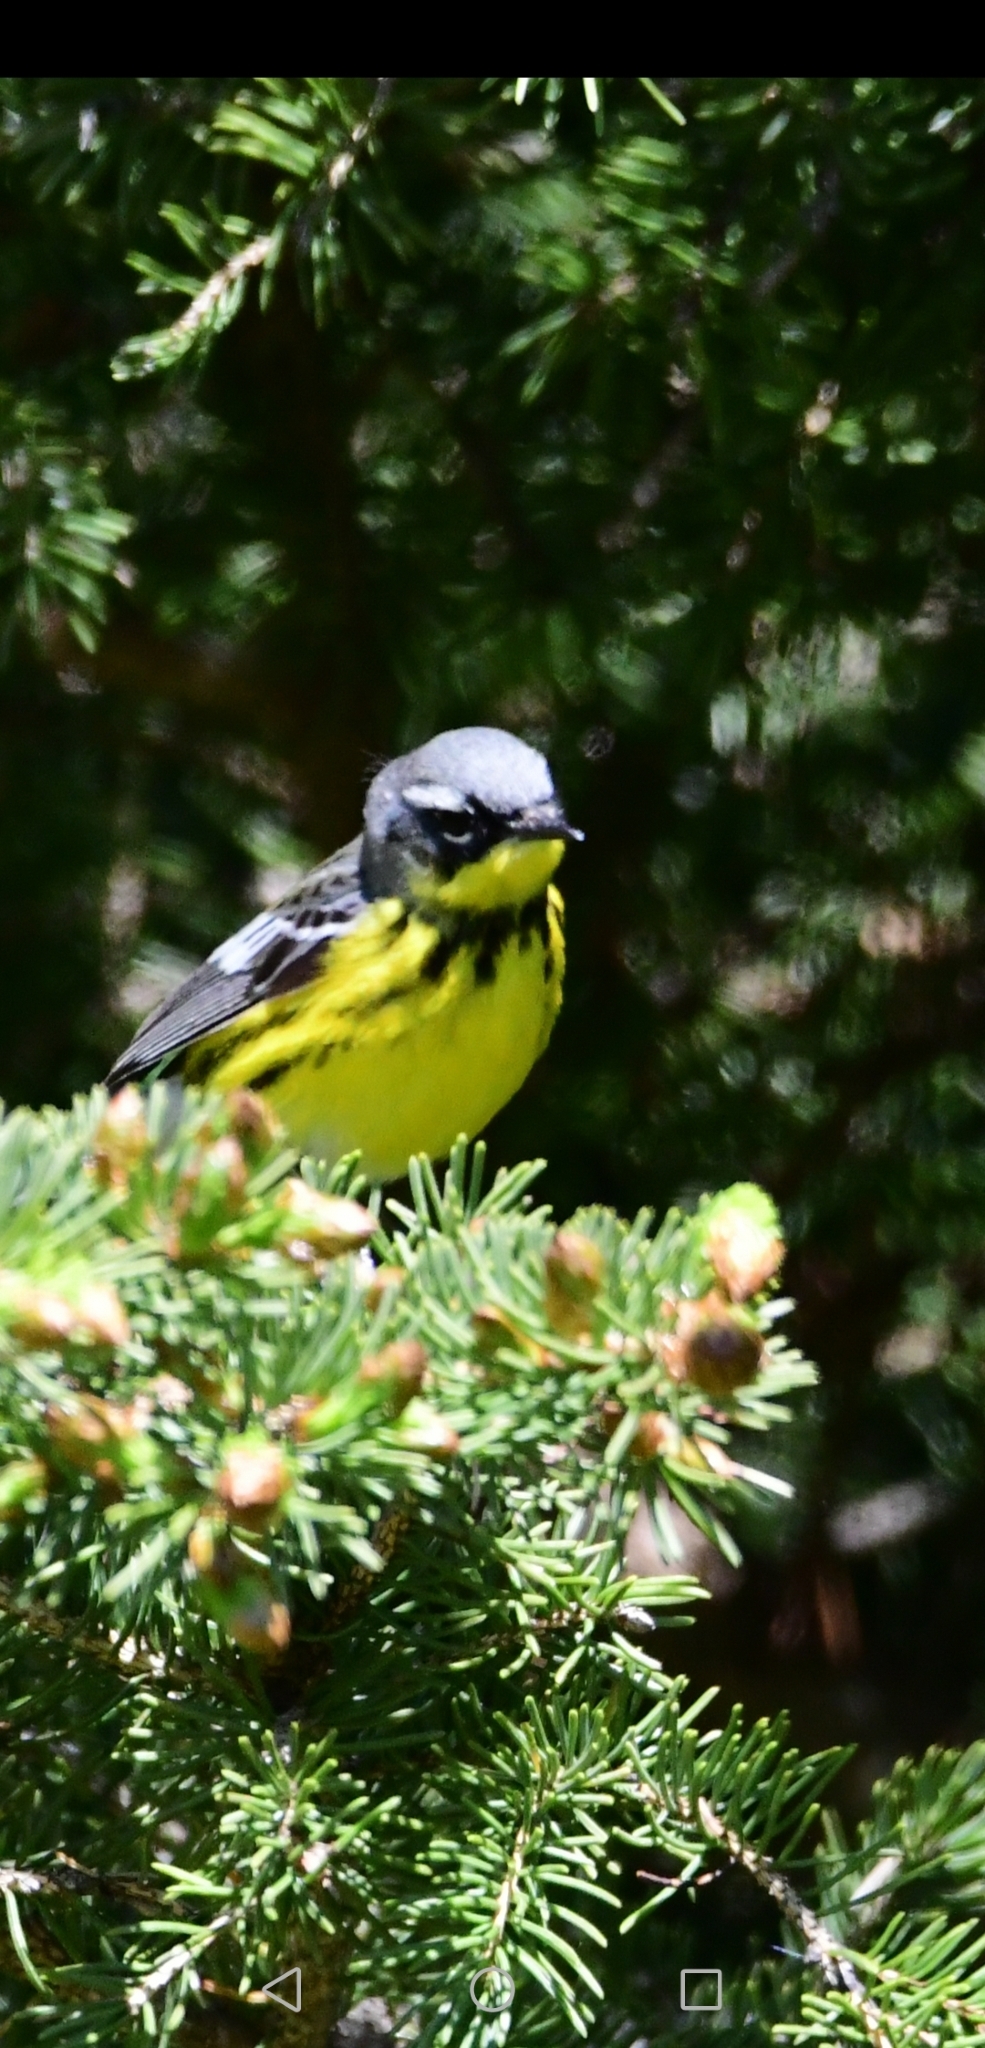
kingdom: Animalia
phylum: Chordata
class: Aves
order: Passeriformes
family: Parulidae
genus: Setophaga
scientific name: Setophaga magnolia
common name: Magnolia warbler
